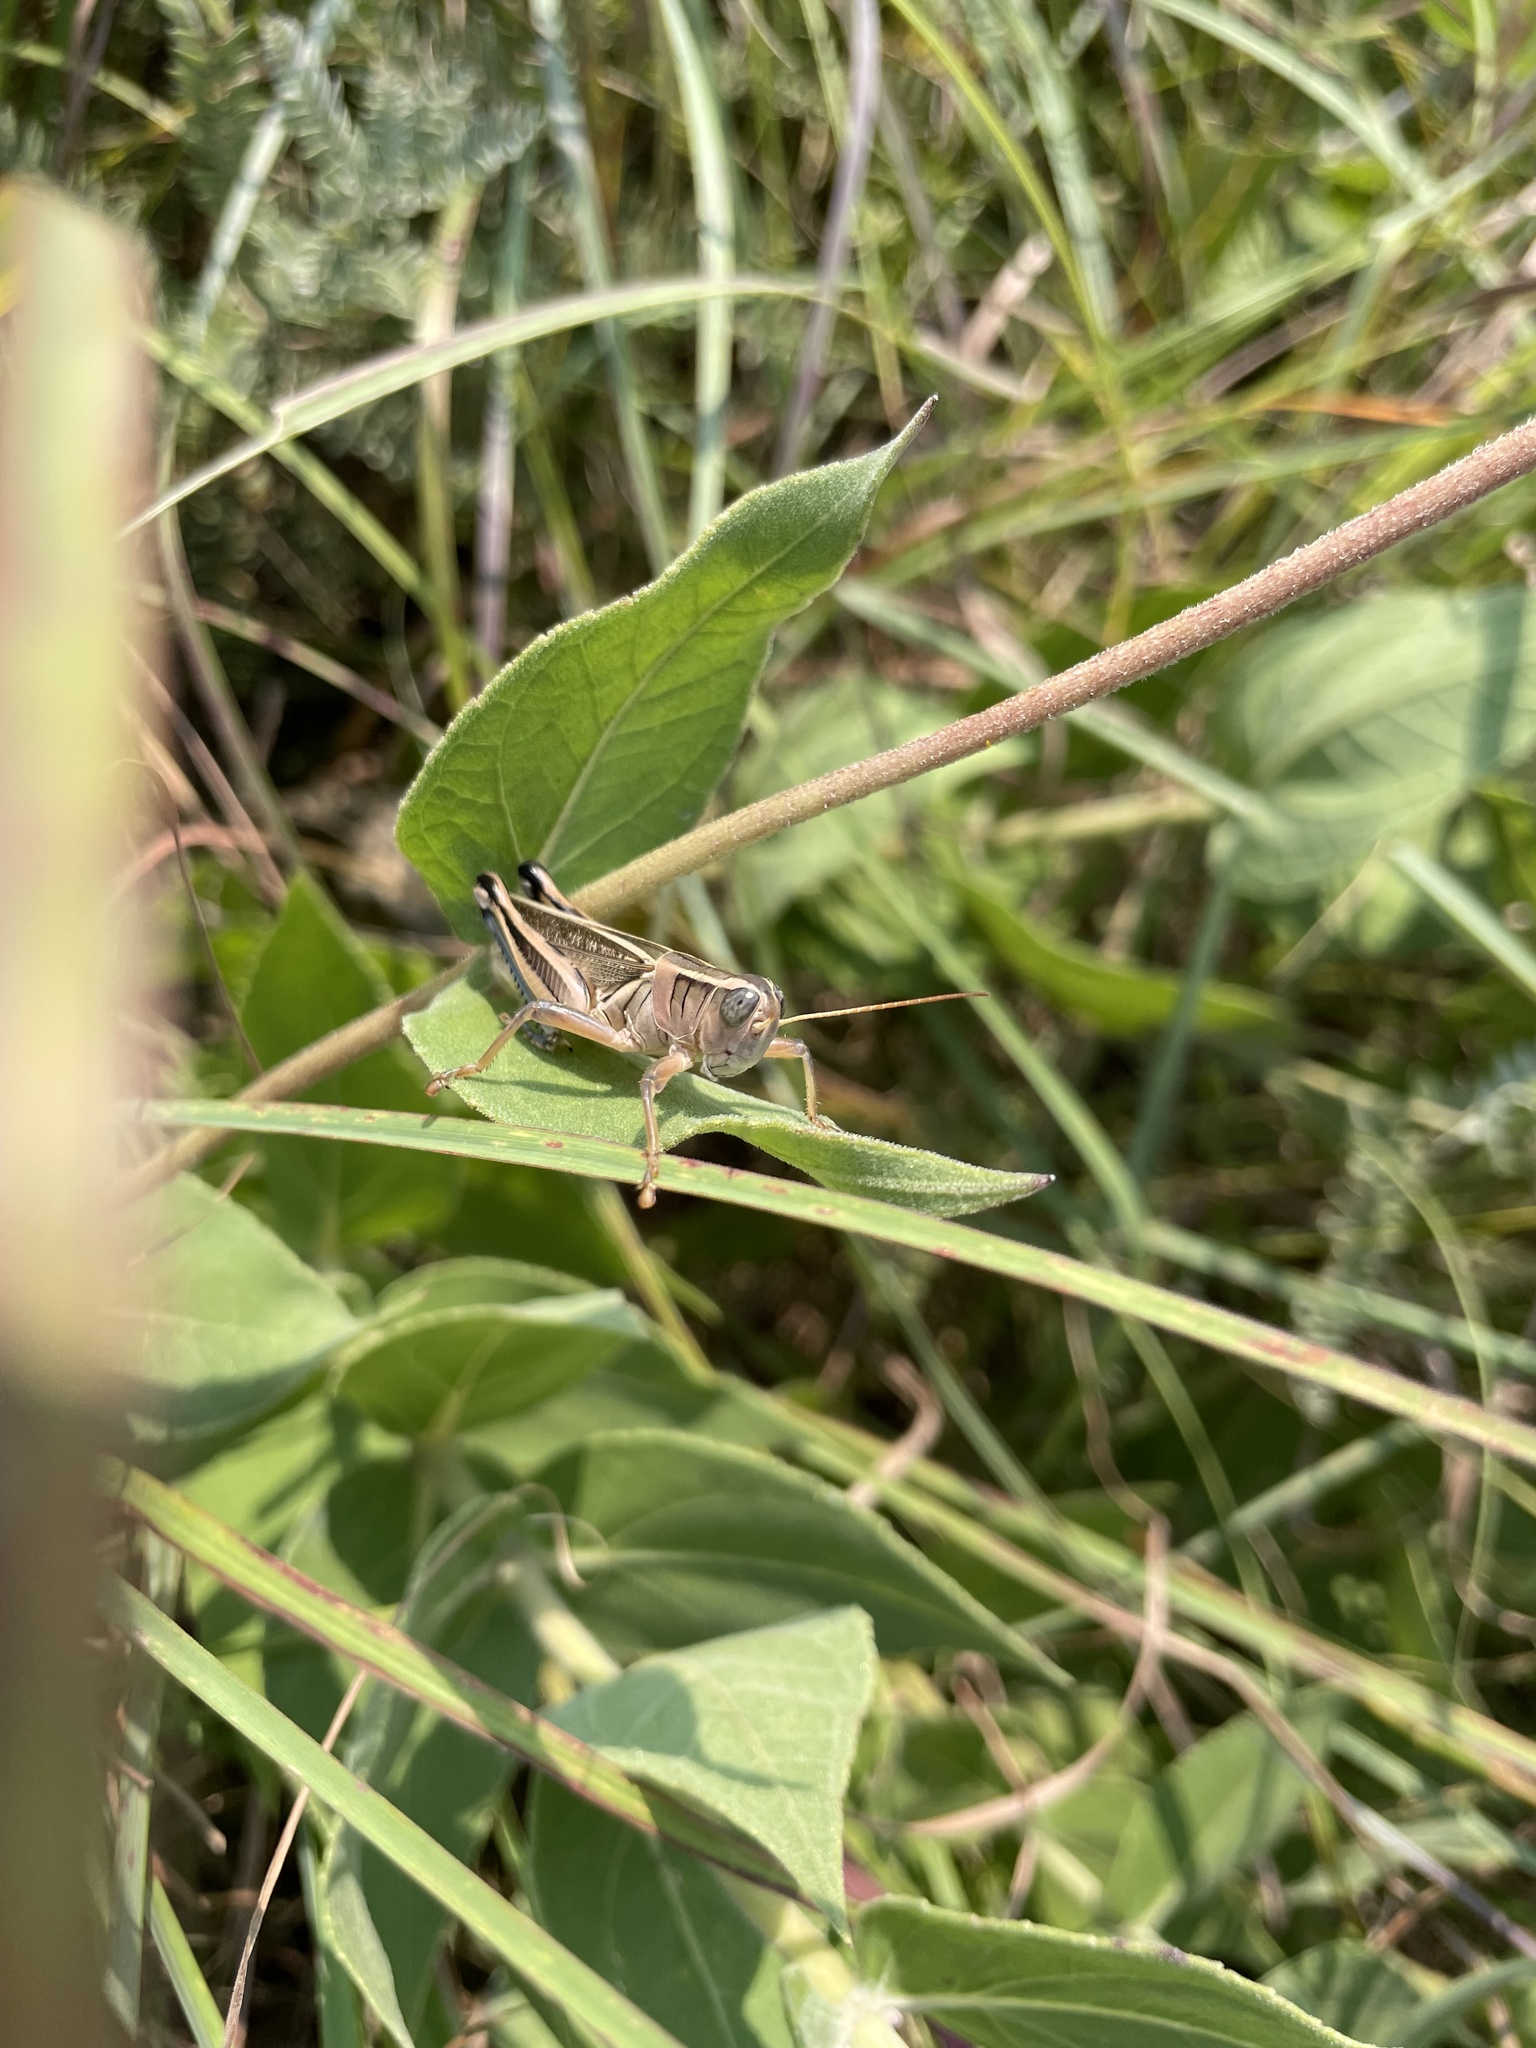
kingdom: Animalia
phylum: Arthropoda
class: Insecta
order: Orthoptera
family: Acrididae
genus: Melanoplus
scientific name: Melanoplus bivittatus
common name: Two-striped grasshopper
